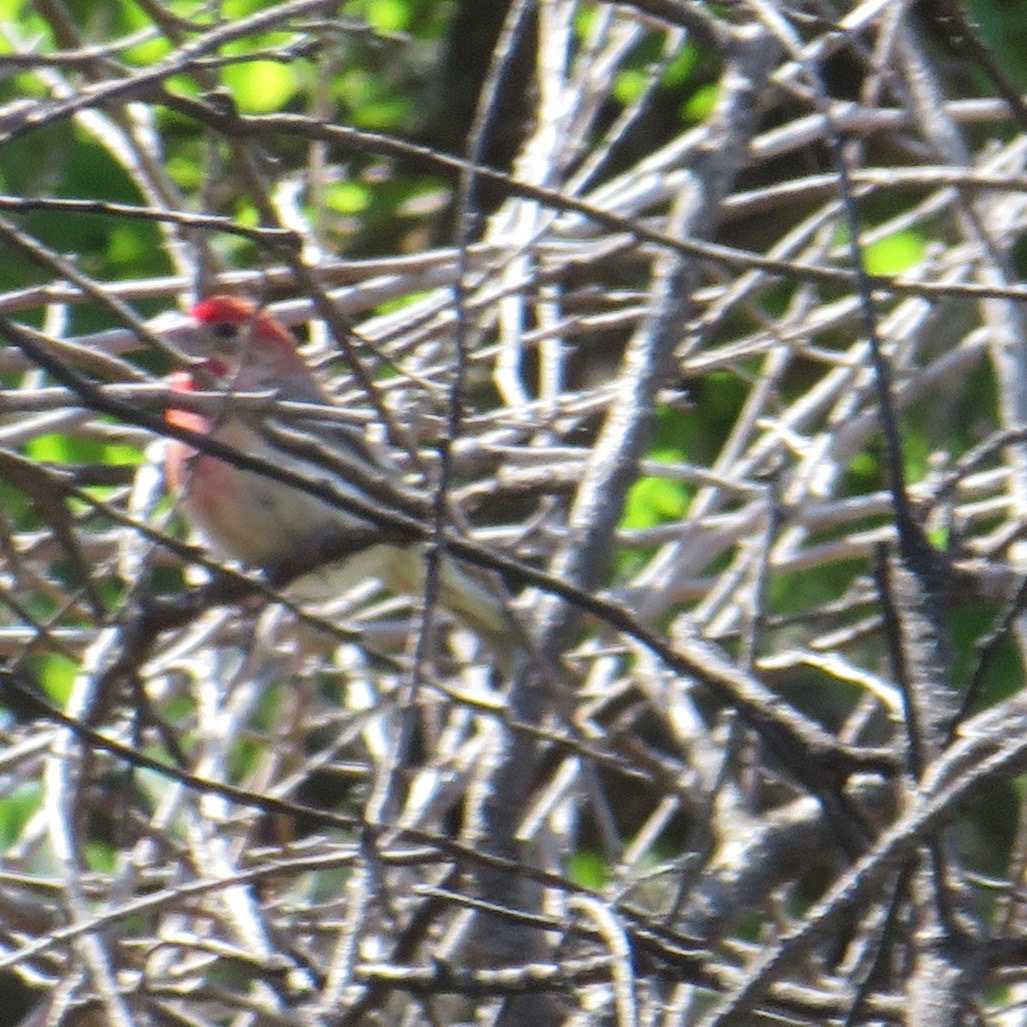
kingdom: Animalia
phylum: Chordata
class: Aves
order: Passeriformes
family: Fringillidae
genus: Haemorhous
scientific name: Haemorhous mexicanus
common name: House finch
